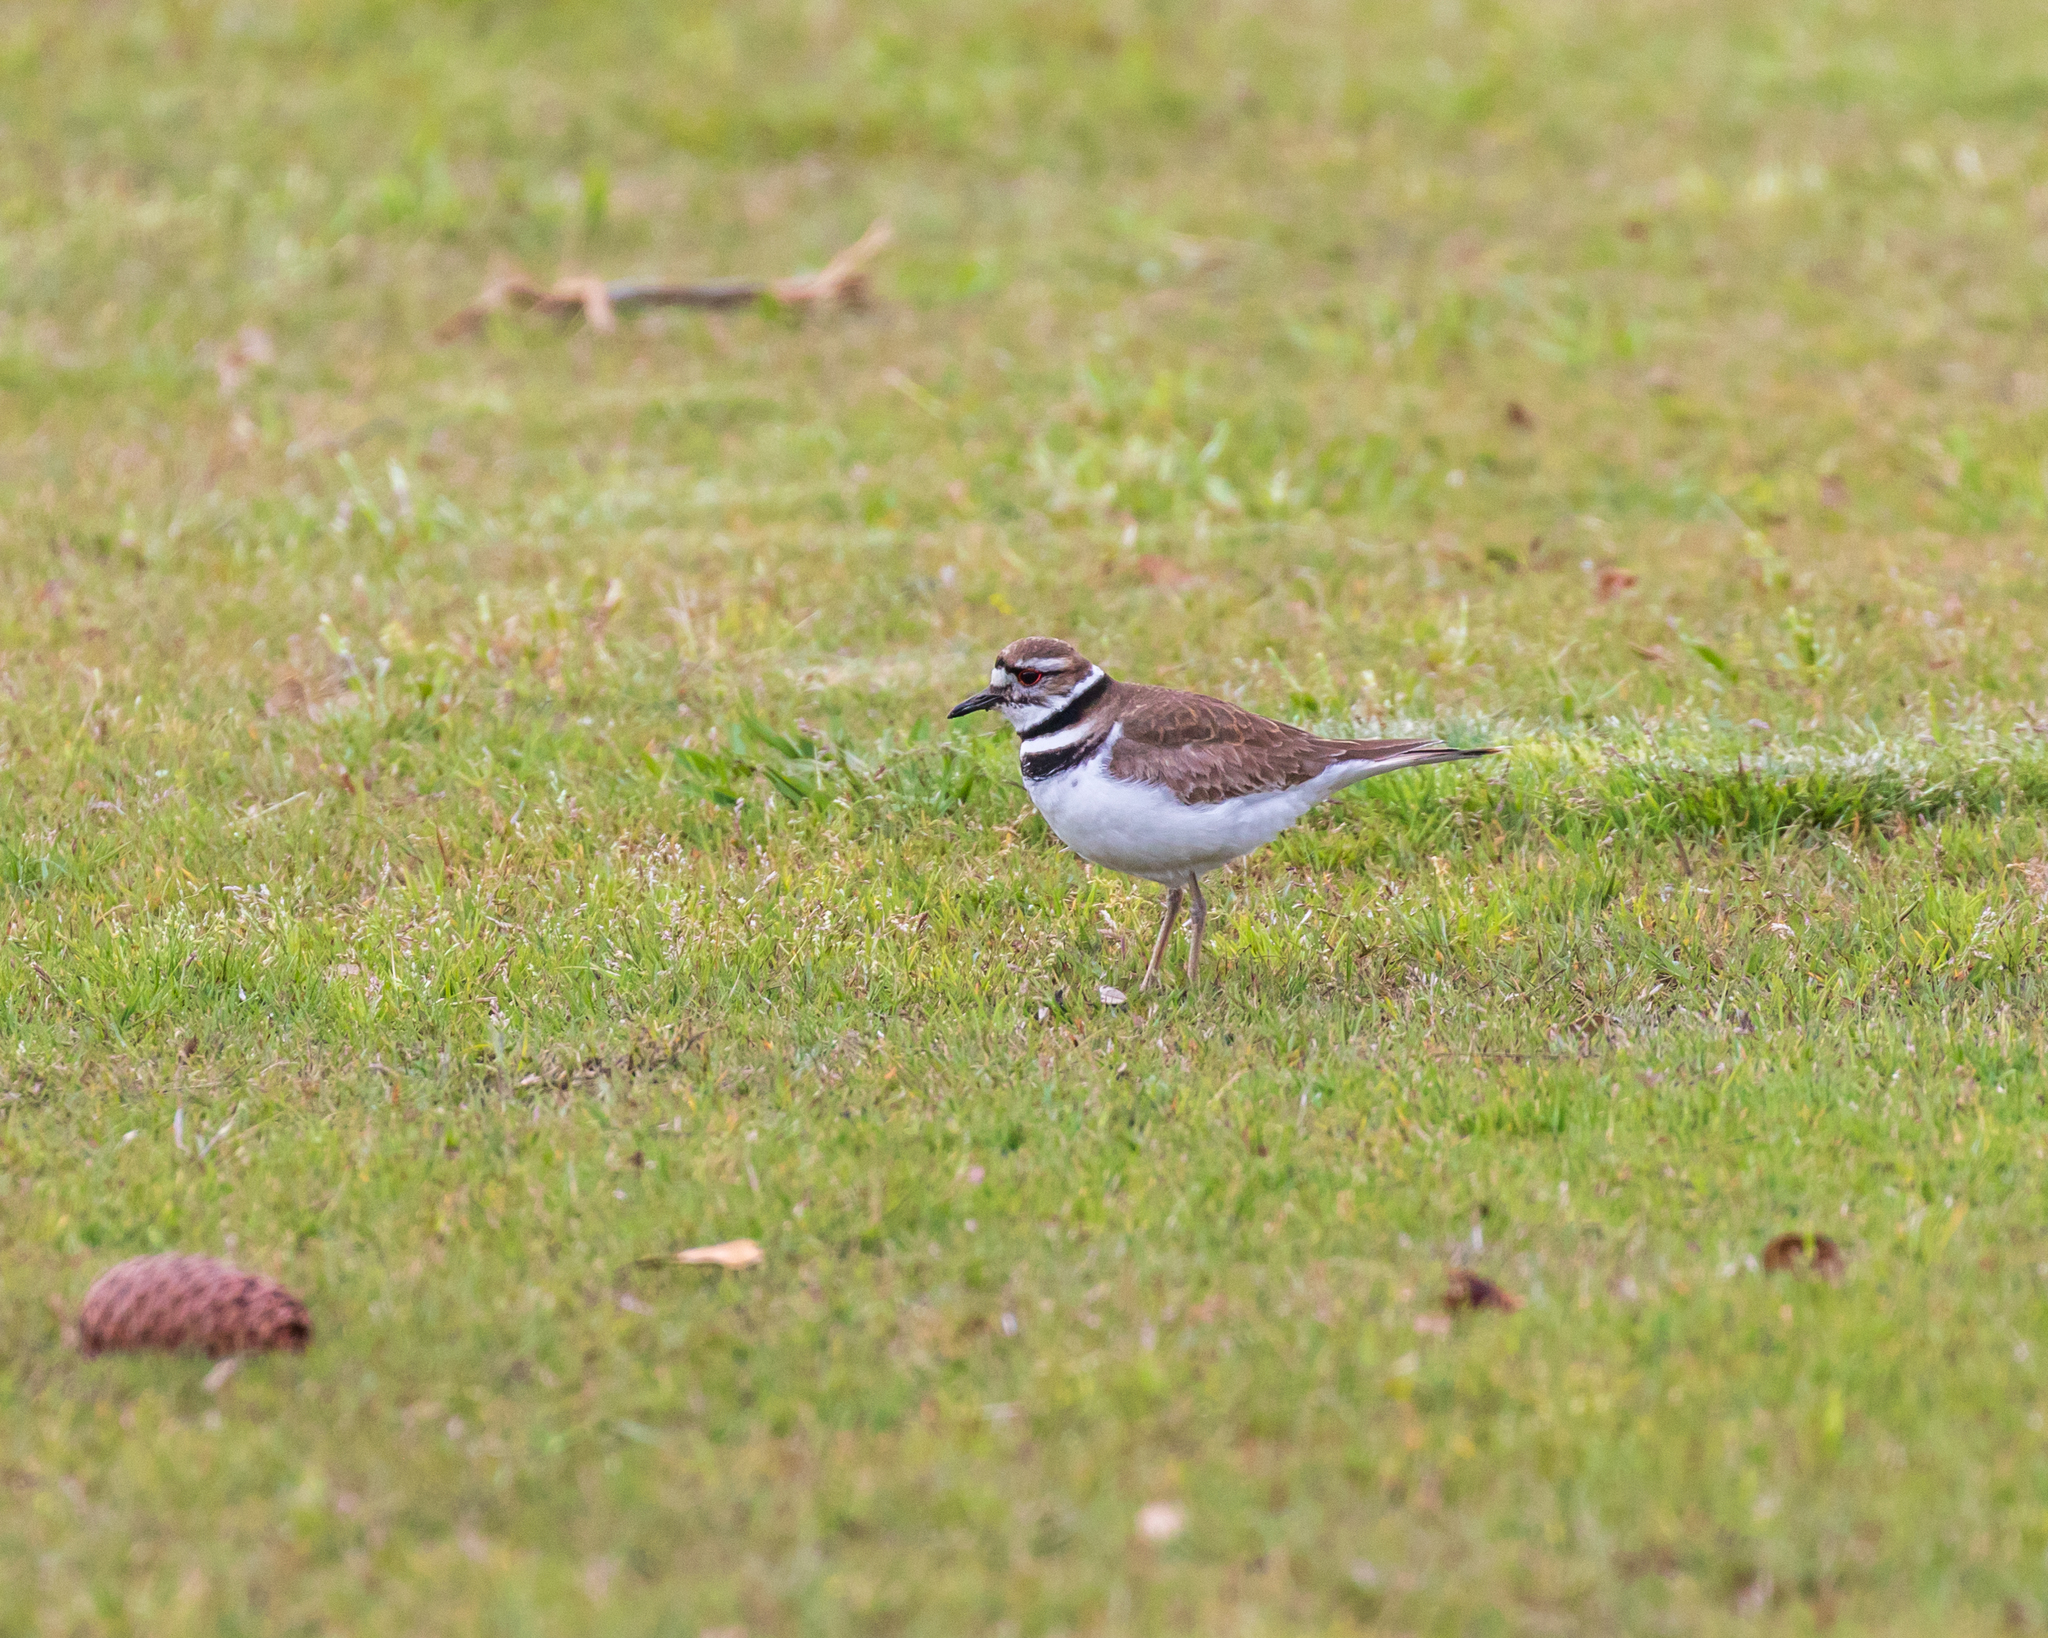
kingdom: Animalia
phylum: Chordata
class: Aves
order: Charadriiformes
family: Charadriidae
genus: Charadrius
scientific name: Charadrius vociferus
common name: Killdeer
